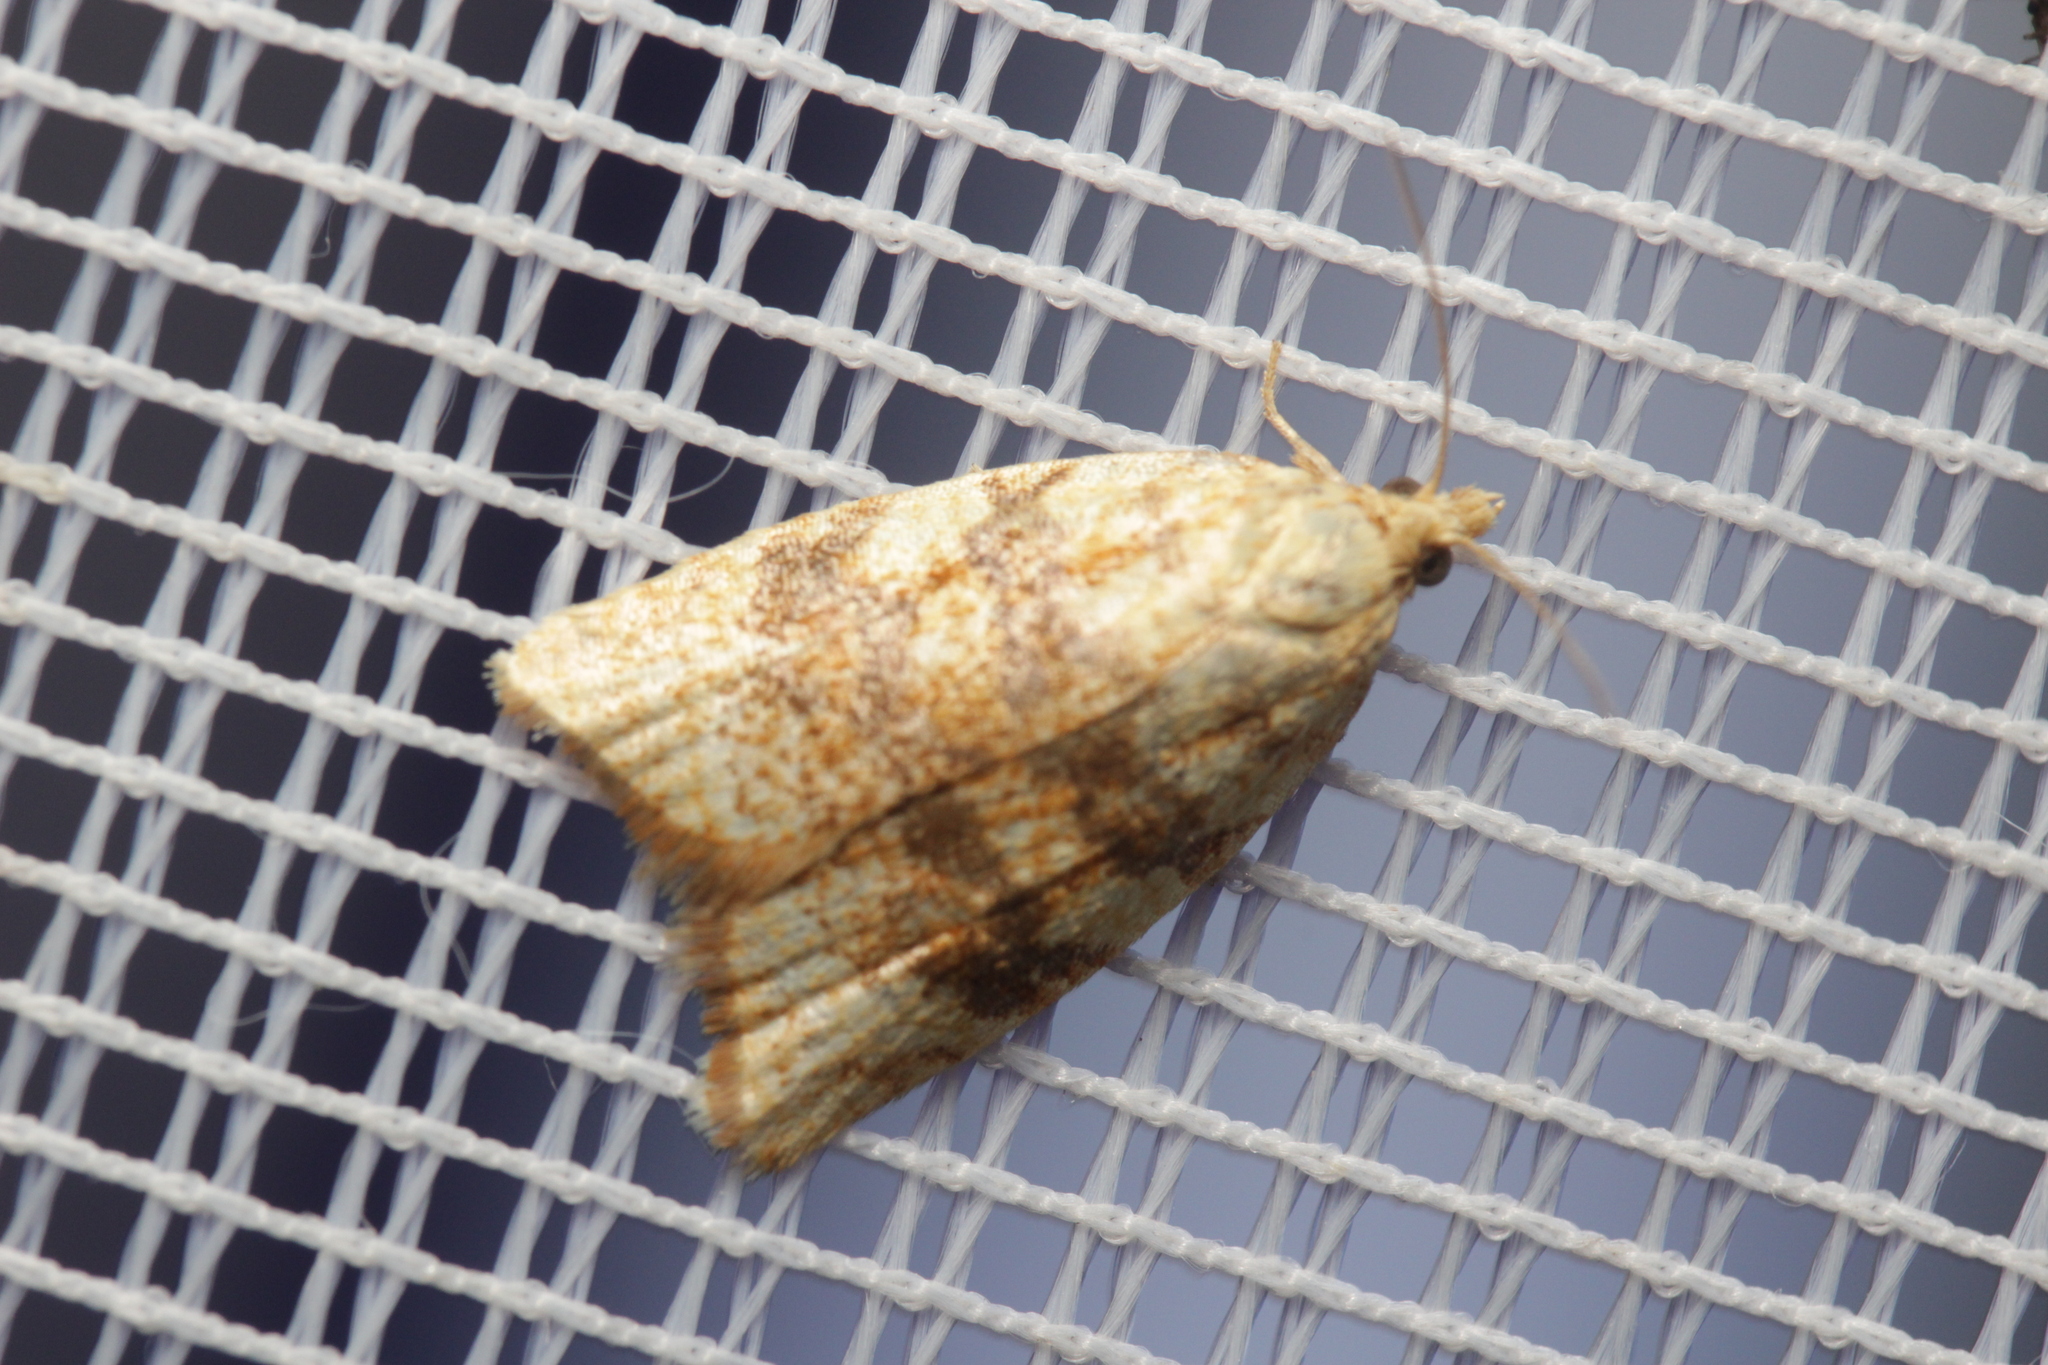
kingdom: Animalia
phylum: Arthropoda
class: Insecta
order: Lepidoptera
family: Tortricidae
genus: Aleimma
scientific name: Aleimma loeflingiana
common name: Yellow oak button
